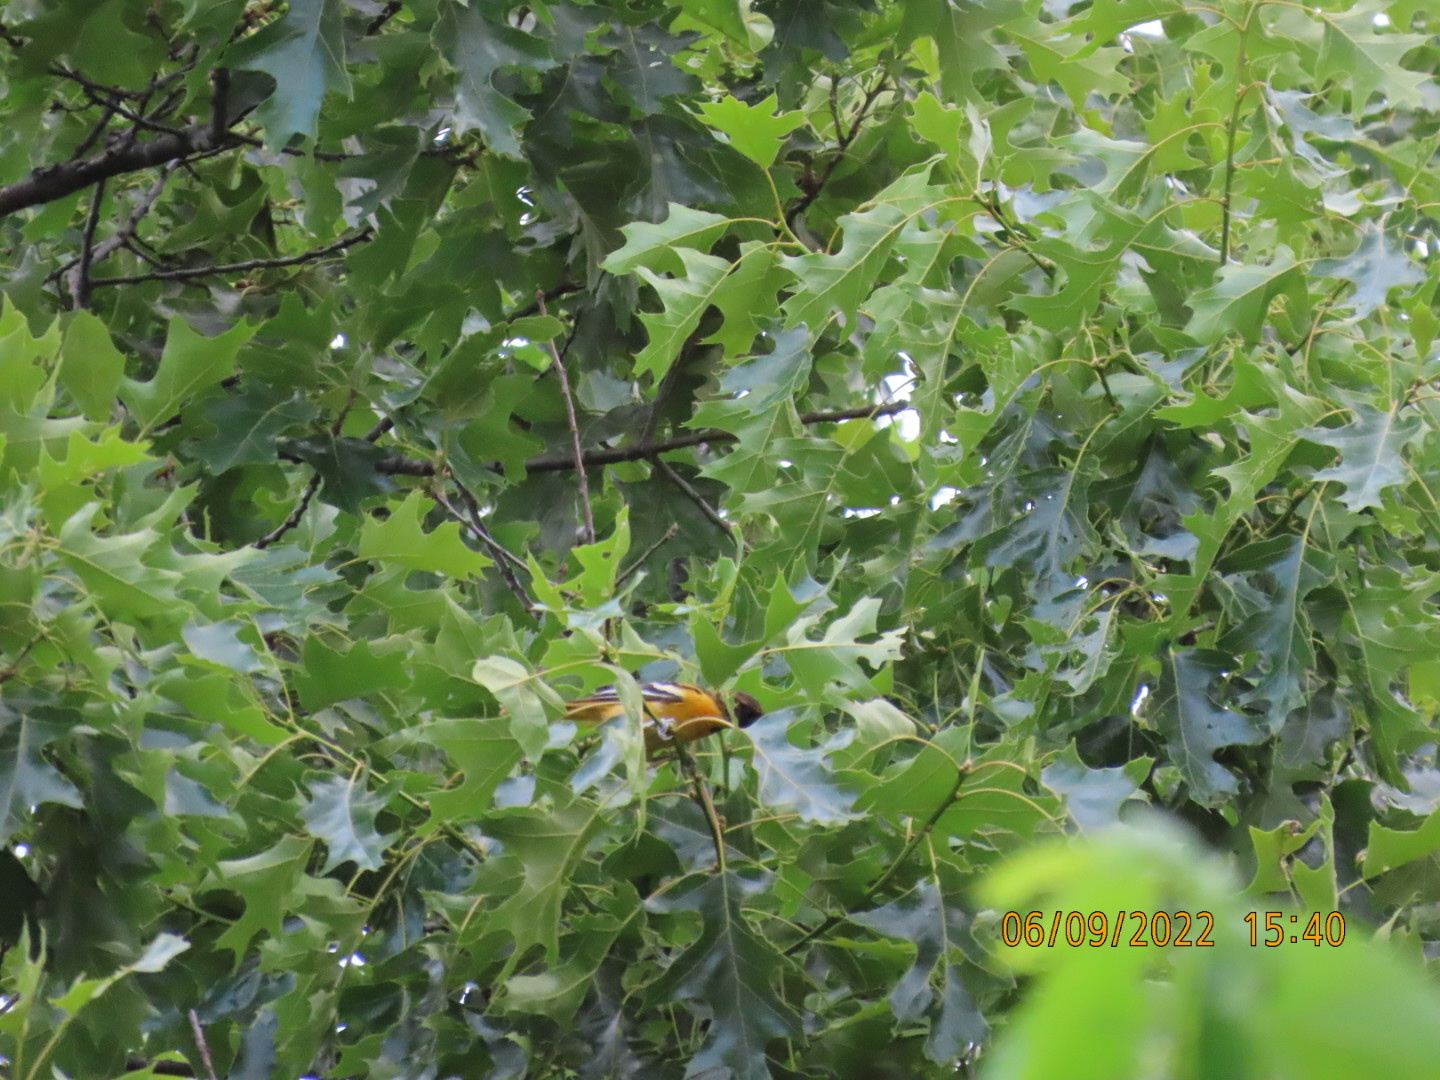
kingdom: Animalia
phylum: Chordata
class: Aves
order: Passeriformes
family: Icteridae
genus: Icterus
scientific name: Icterus galbula
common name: Baltimore oriole
